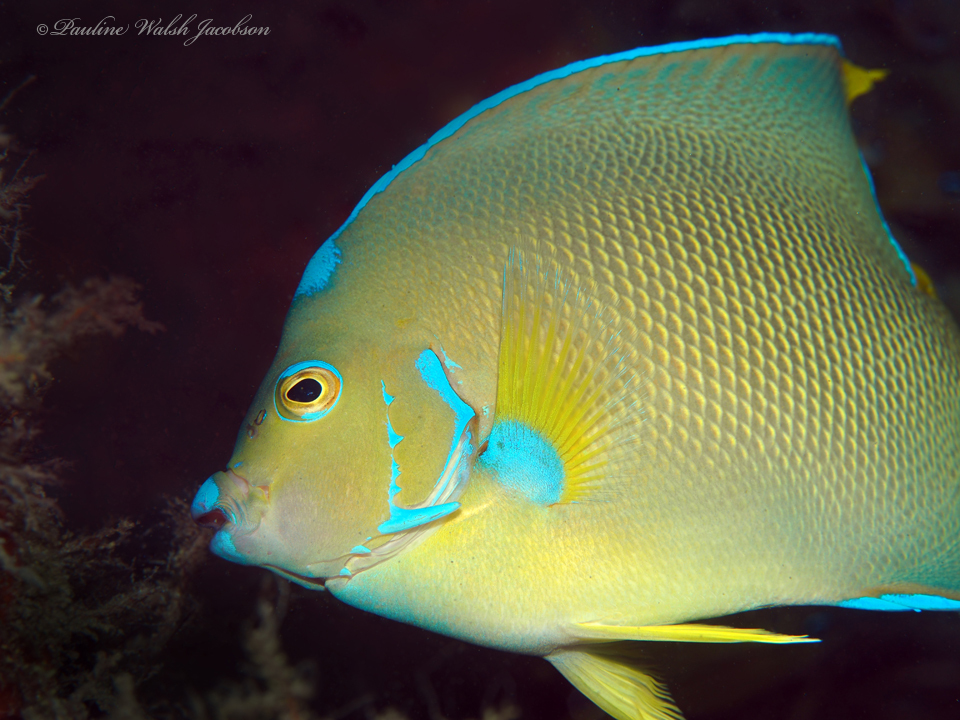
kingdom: Animalia
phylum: Chordata
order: Perciformes
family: Pomacanthidae
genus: Holacanthus
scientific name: Holacanthus bermudensis
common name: Blue angelfish
